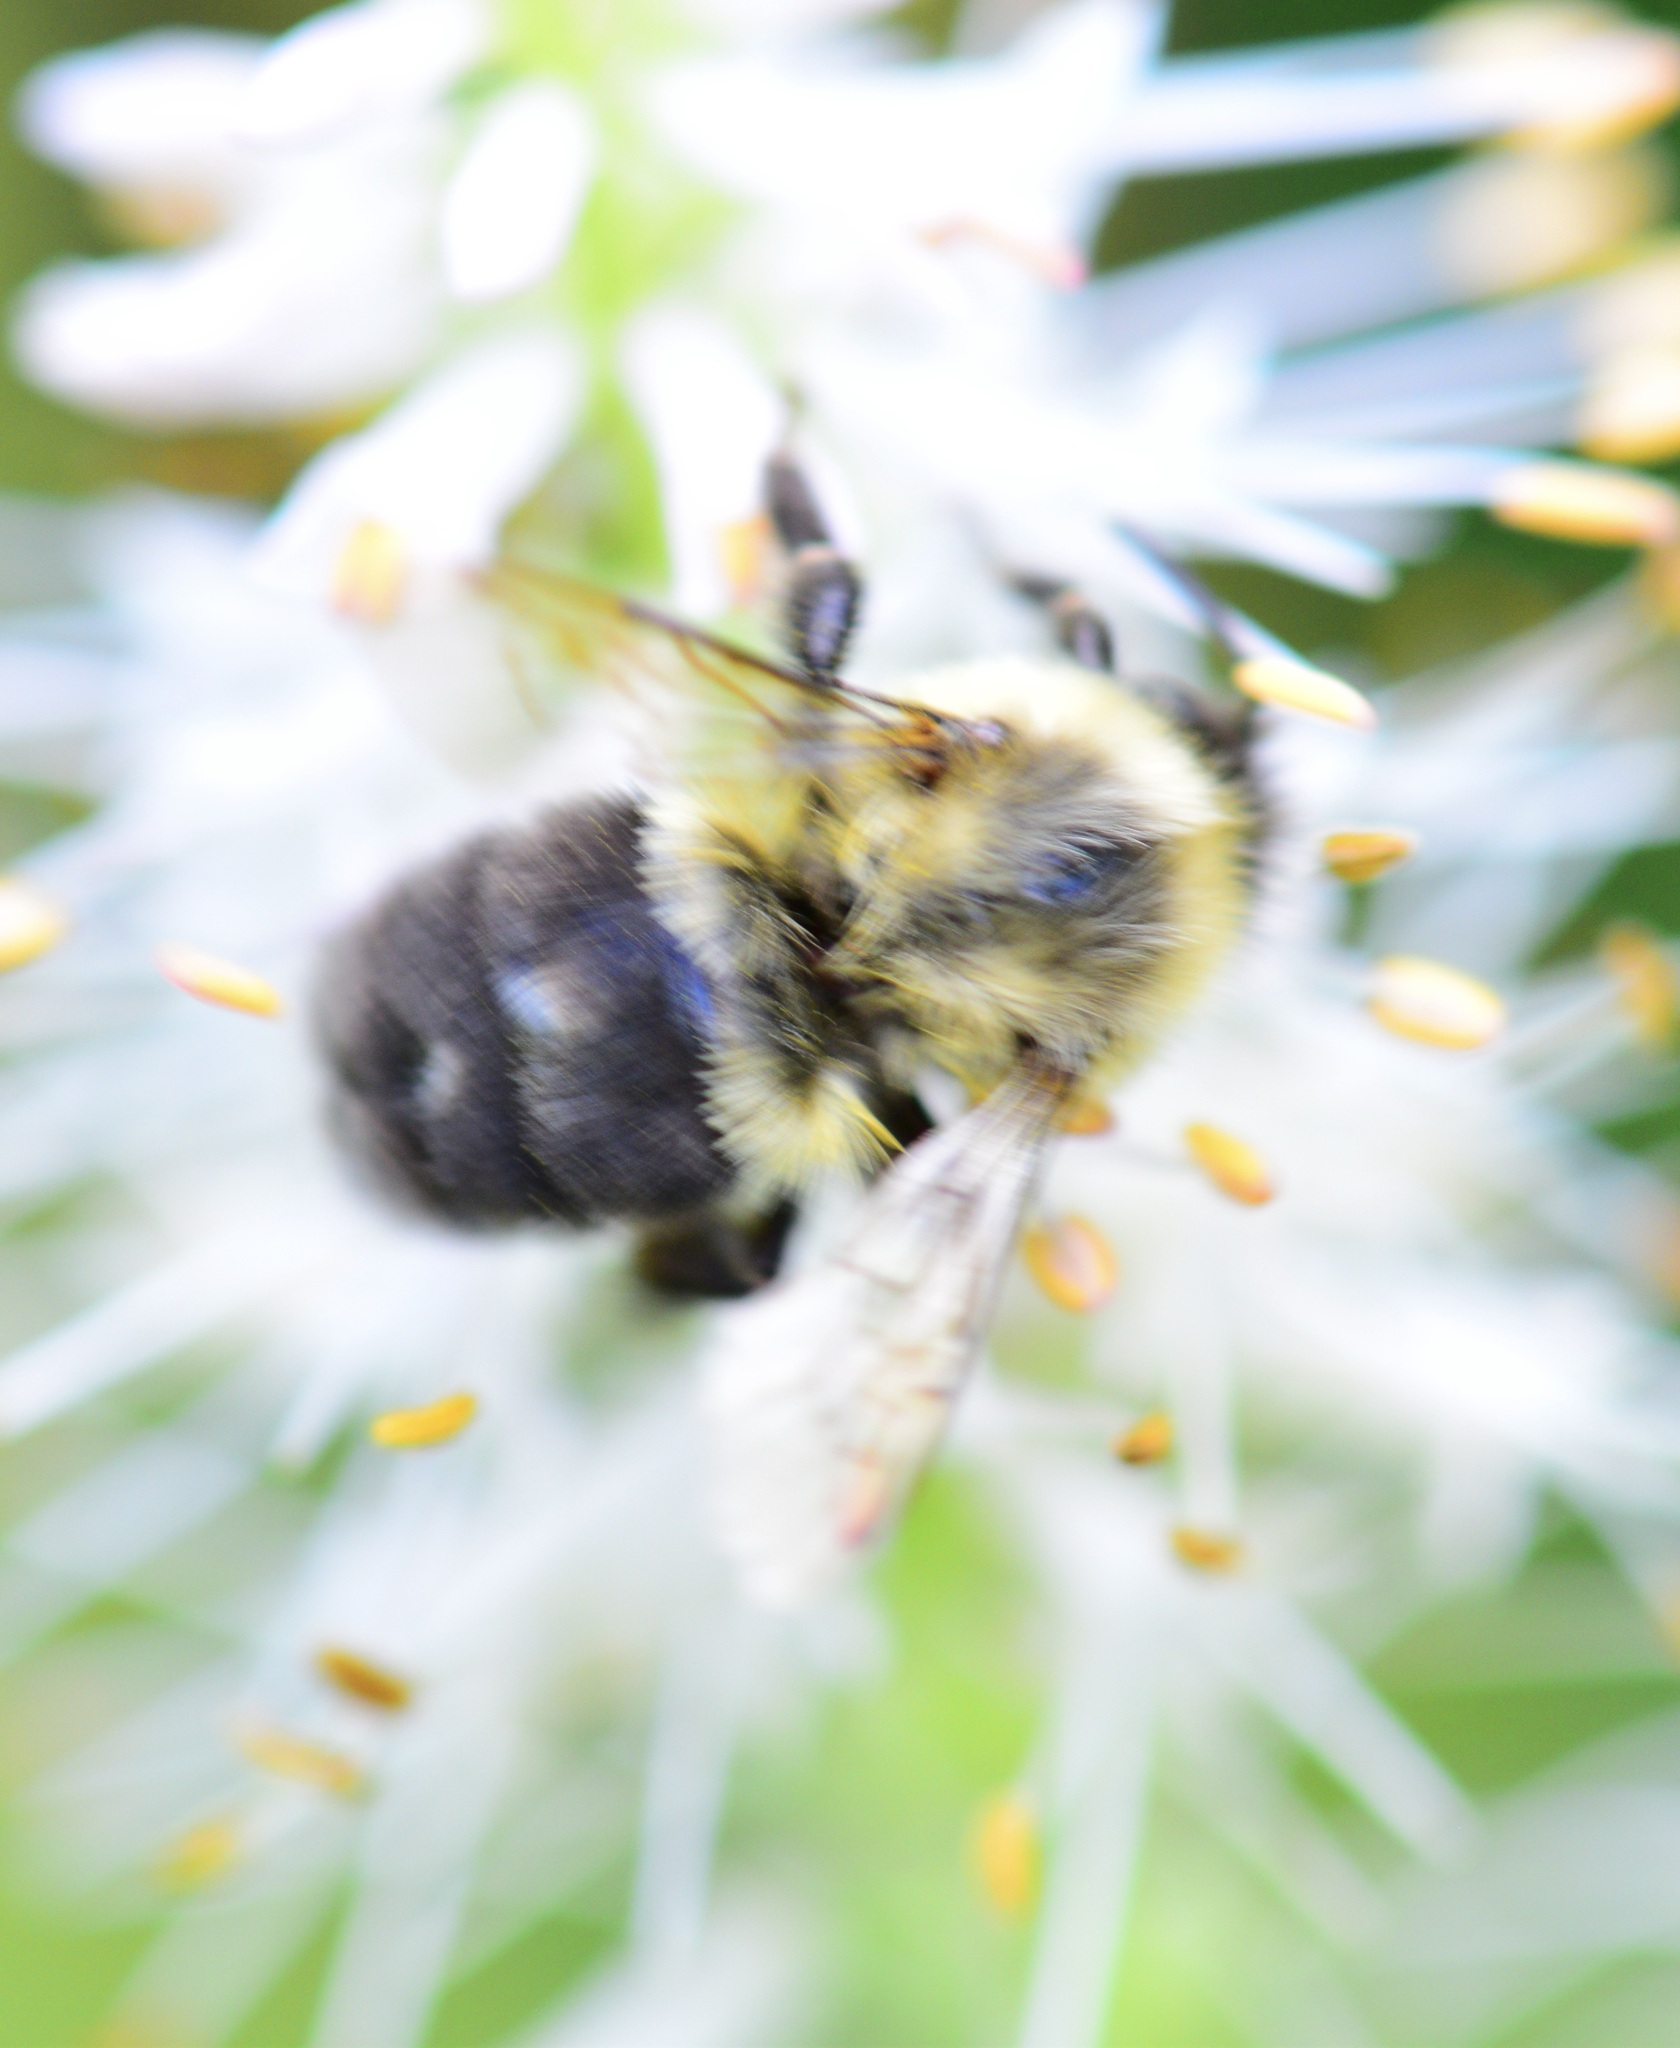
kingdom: Animalia
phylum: Arthropoda
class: Insecta
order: Hymenoptera
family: Apidae
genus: Bombus
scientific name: Bombus impatiens
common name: Common eastern bumble bee
